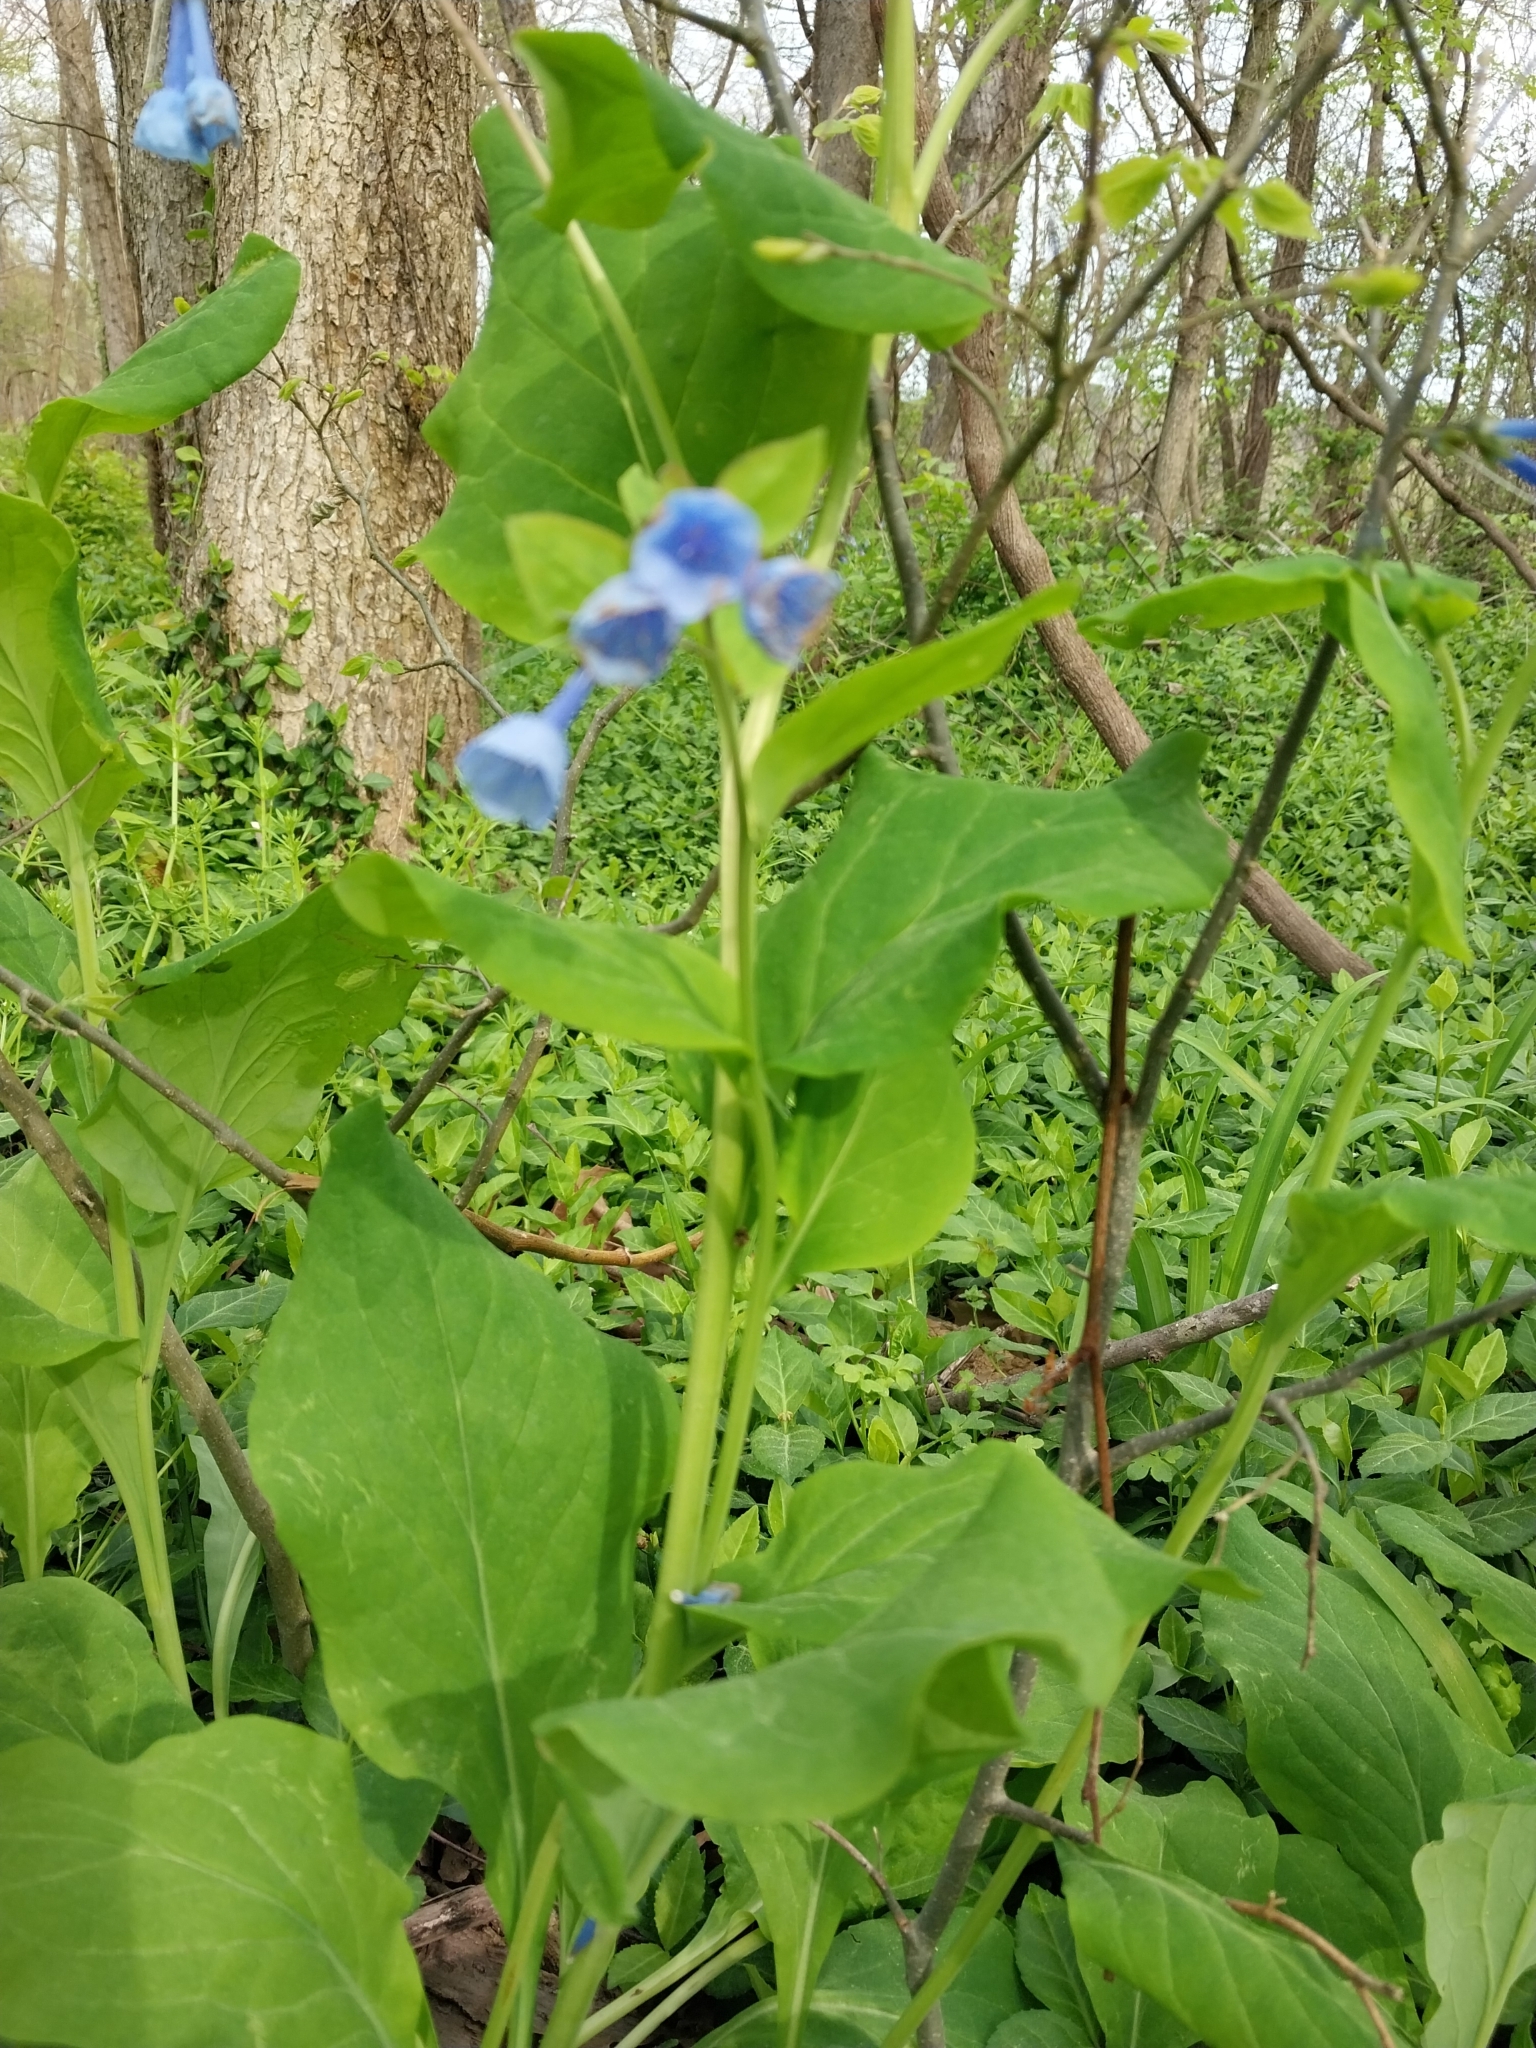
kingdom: Plantae
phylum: Tracheophyta
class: Magnoliopsida
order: Boraginales
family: Boraginaceae
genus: Mertensia
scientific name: Mertensia virginica
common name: Virginia bluebells
